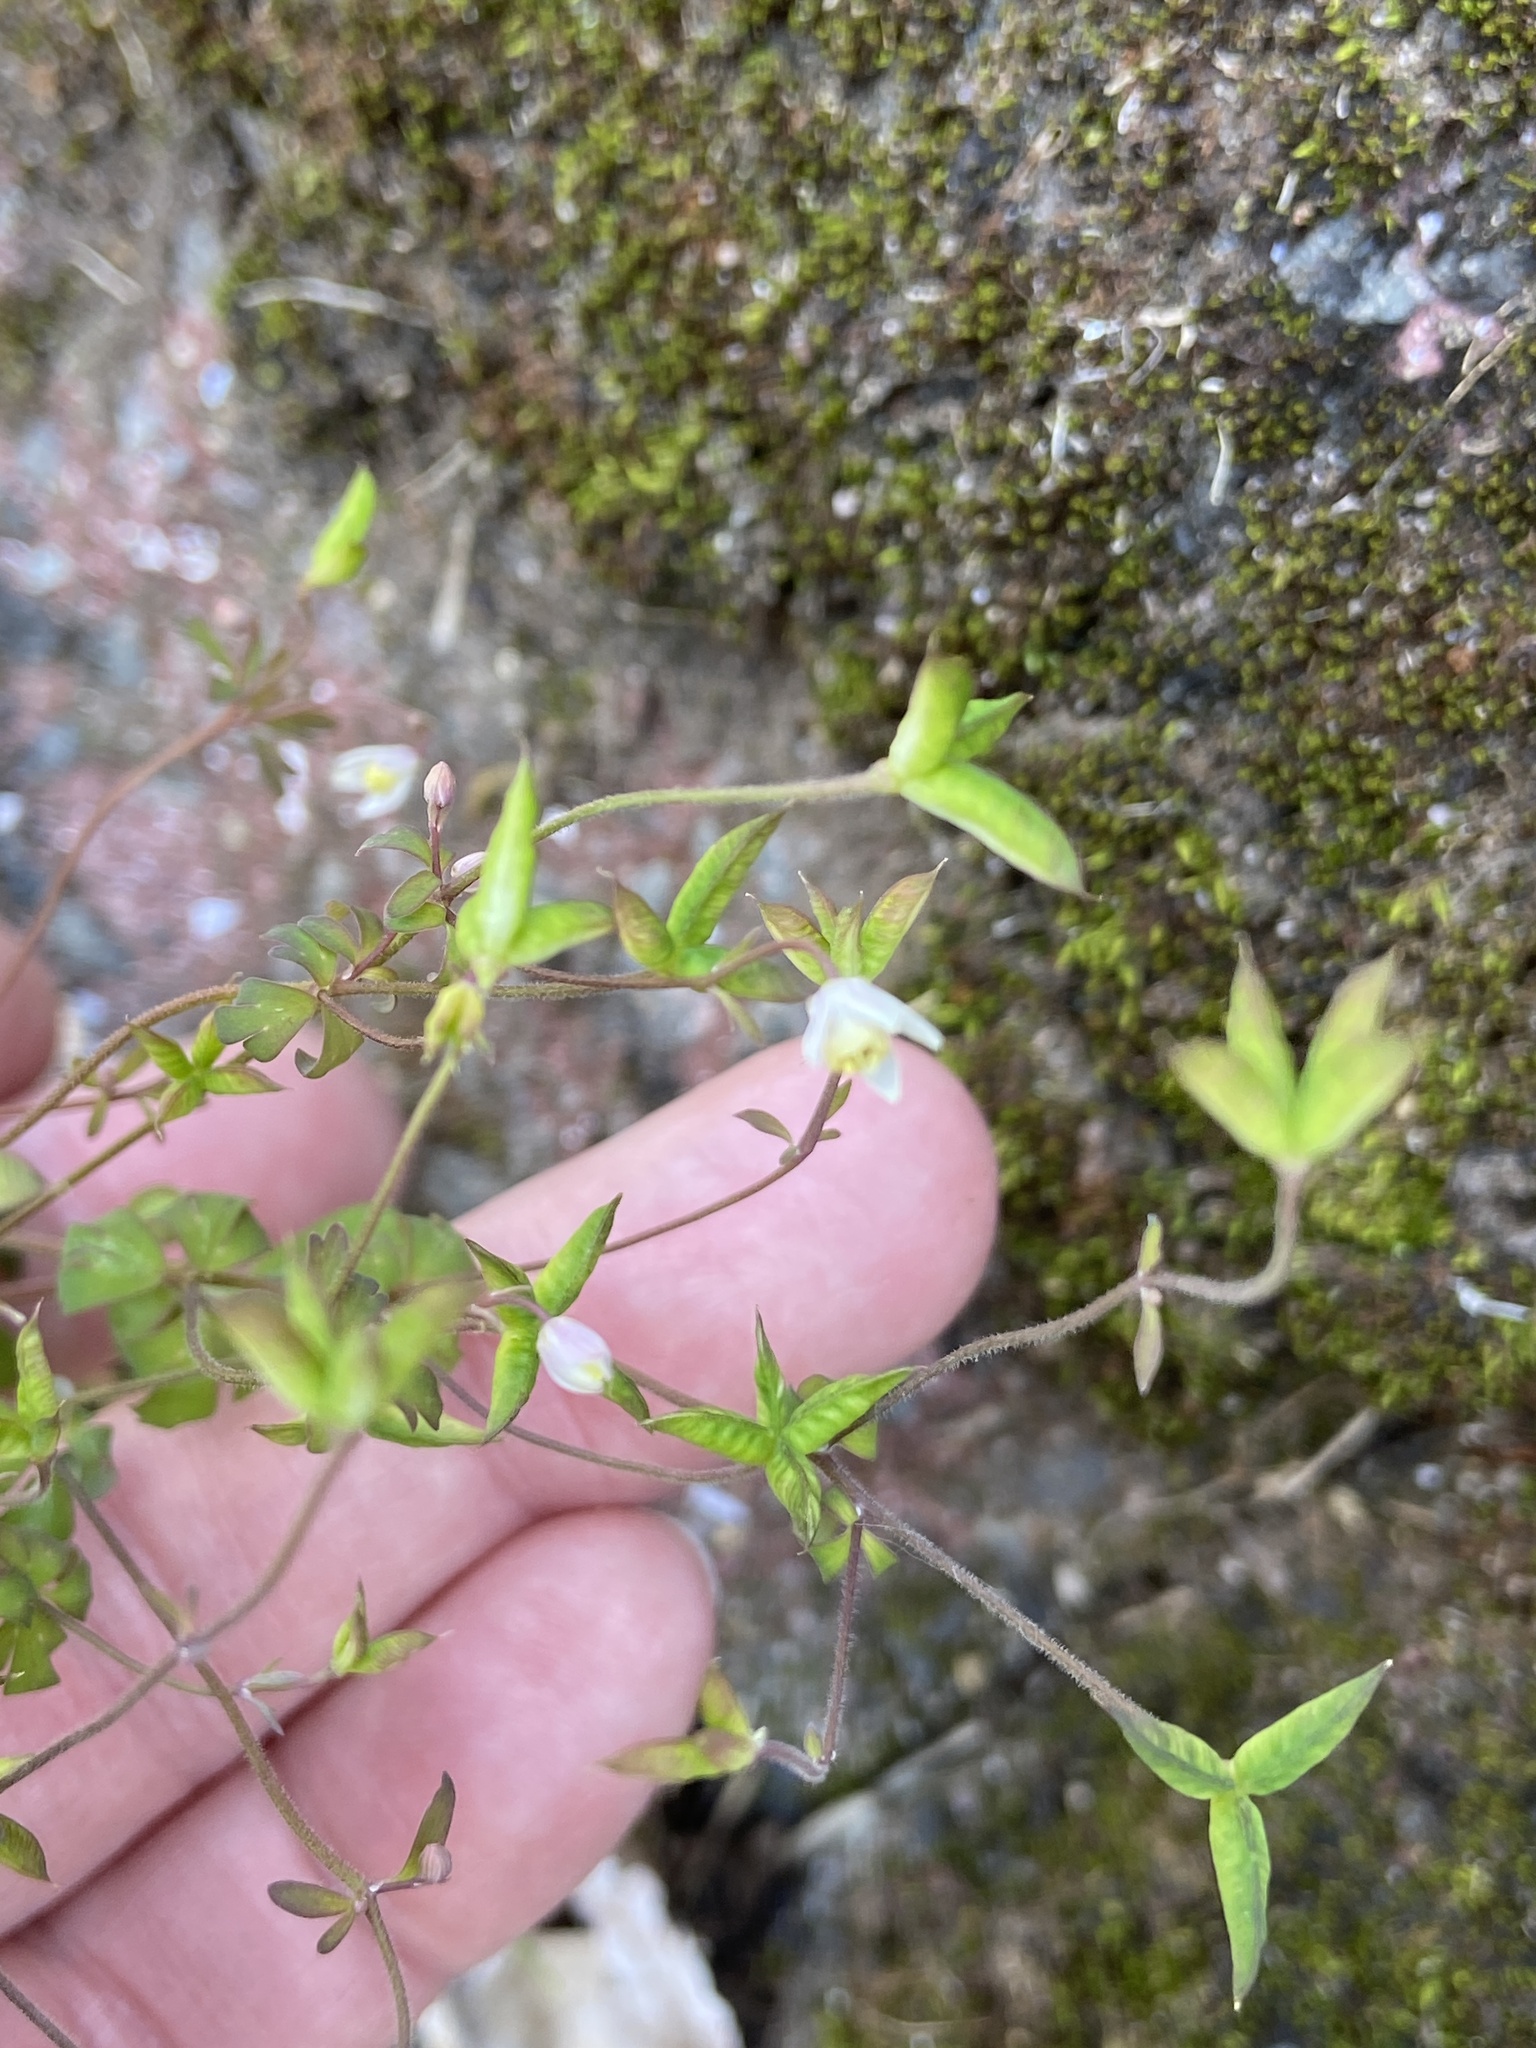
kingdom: Plantae
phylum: Tracheophyta
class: Magnoliopsida
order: Ranunculales
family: Ranunculaceae
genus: Semiaquilegia
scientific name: Semiaquilegia adoxoides
